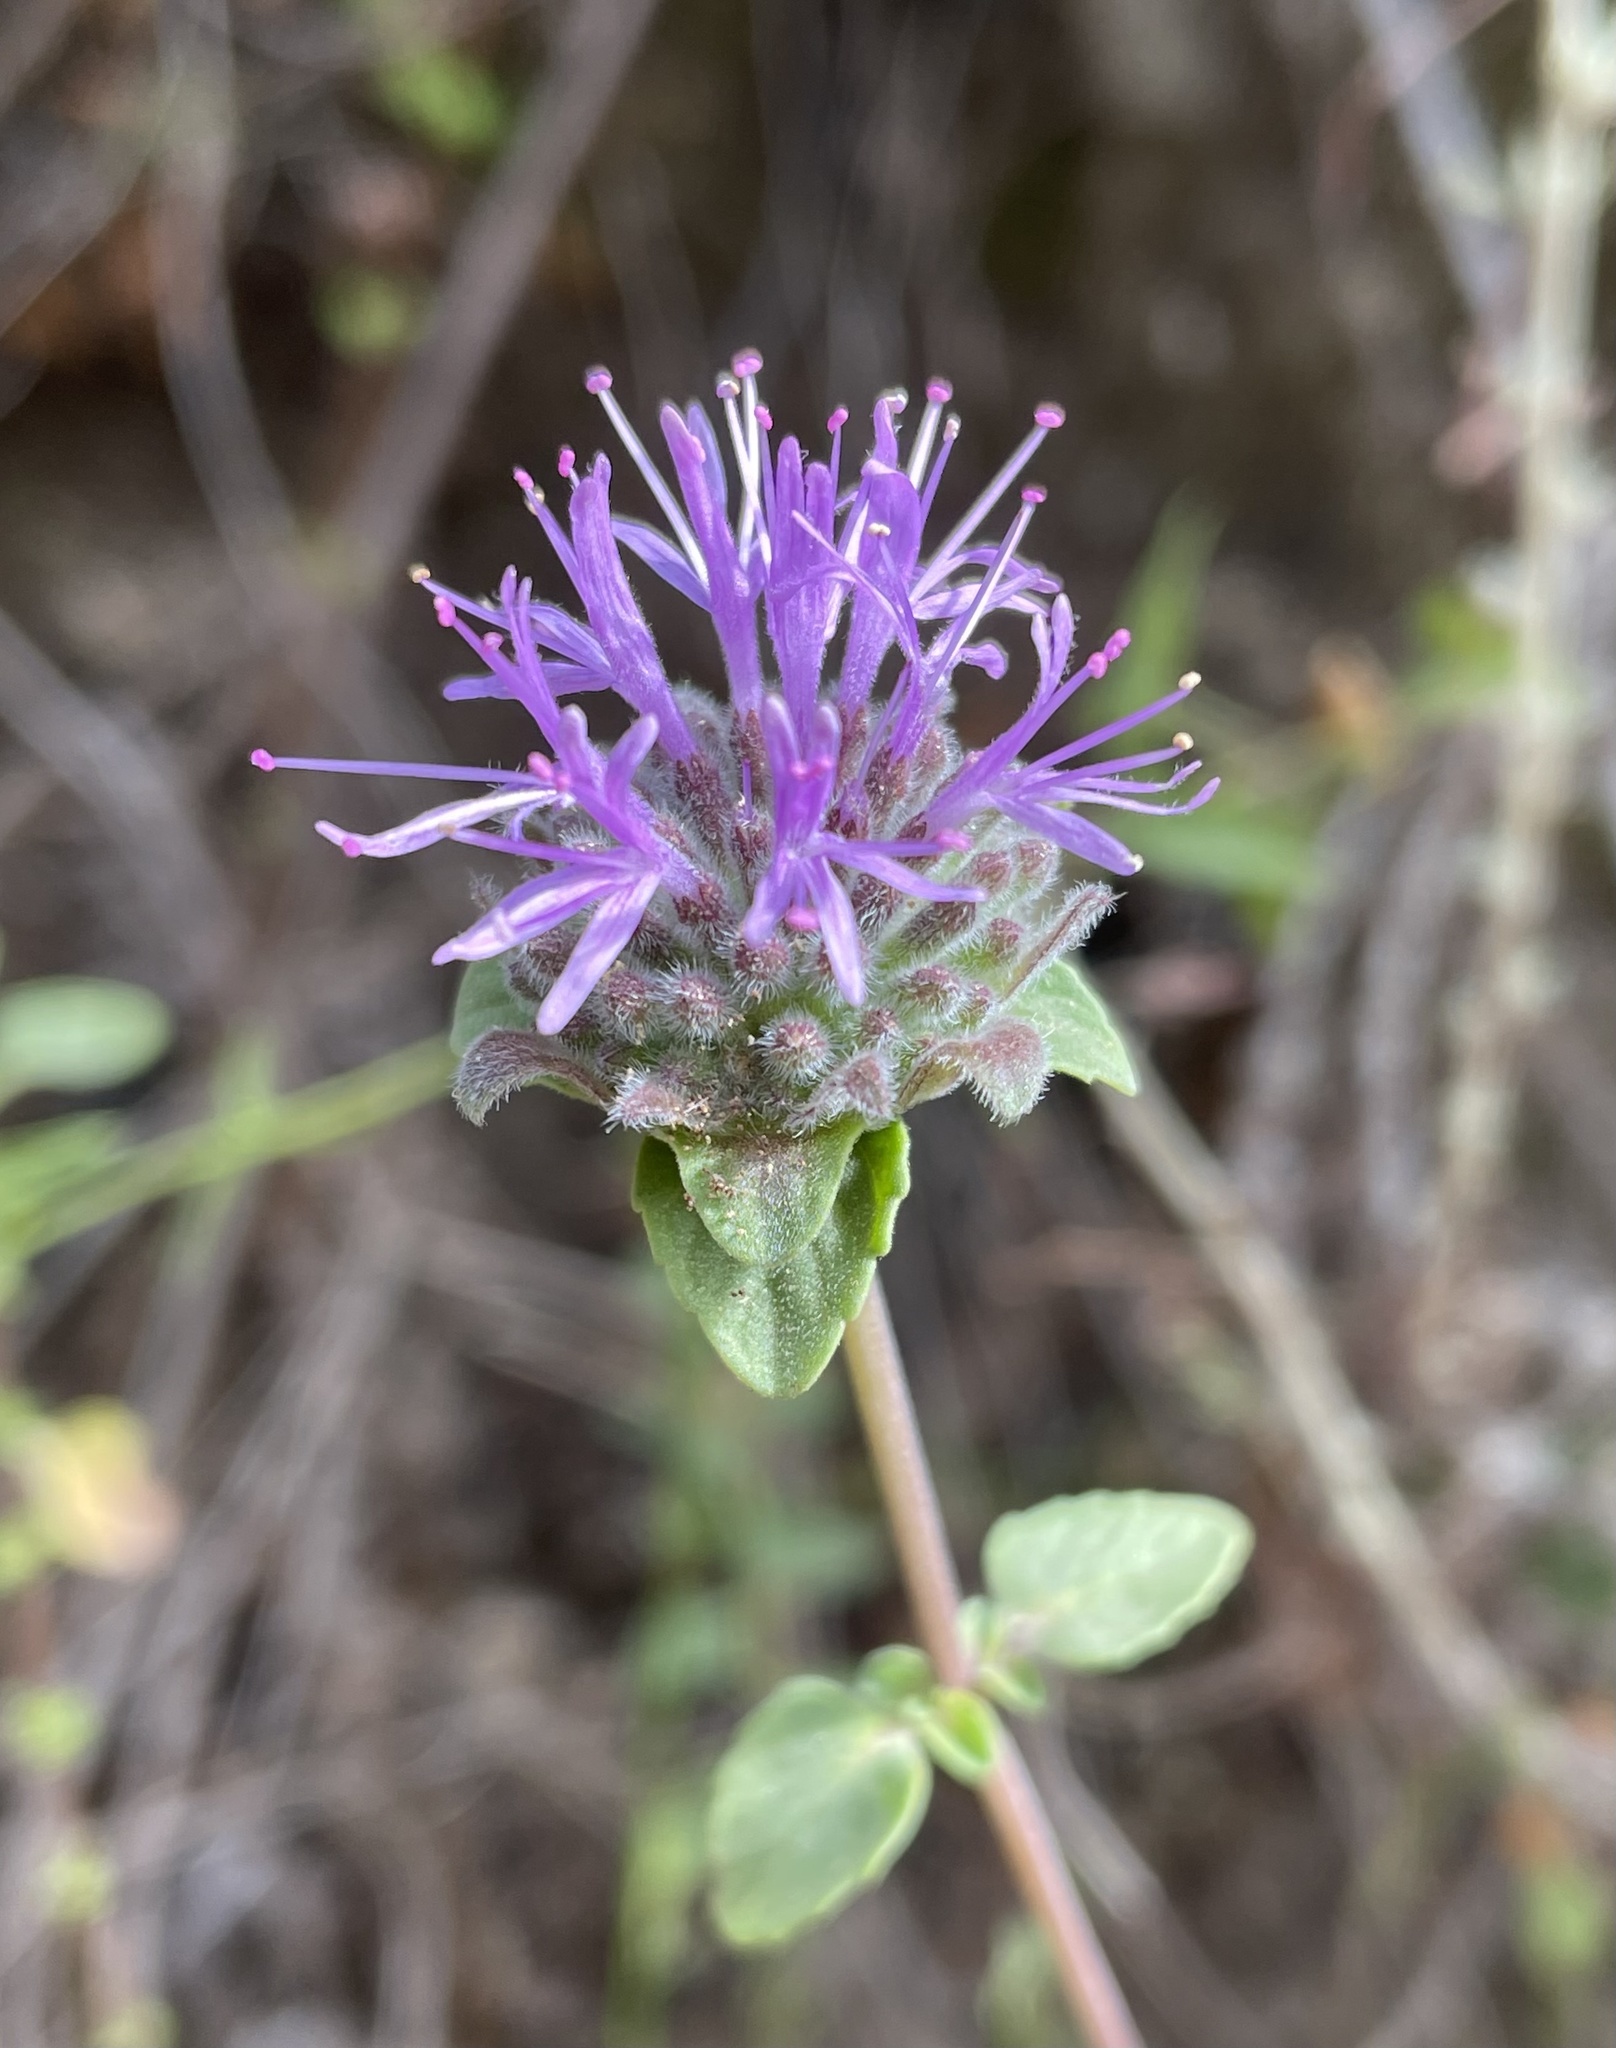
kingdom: Plantae
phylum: Tracheophyta
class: Magnoliopsida
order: Lamiales
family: Lamiaceae
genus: Monardella
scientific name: Monardella odoratissima
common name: Pacific monardella
